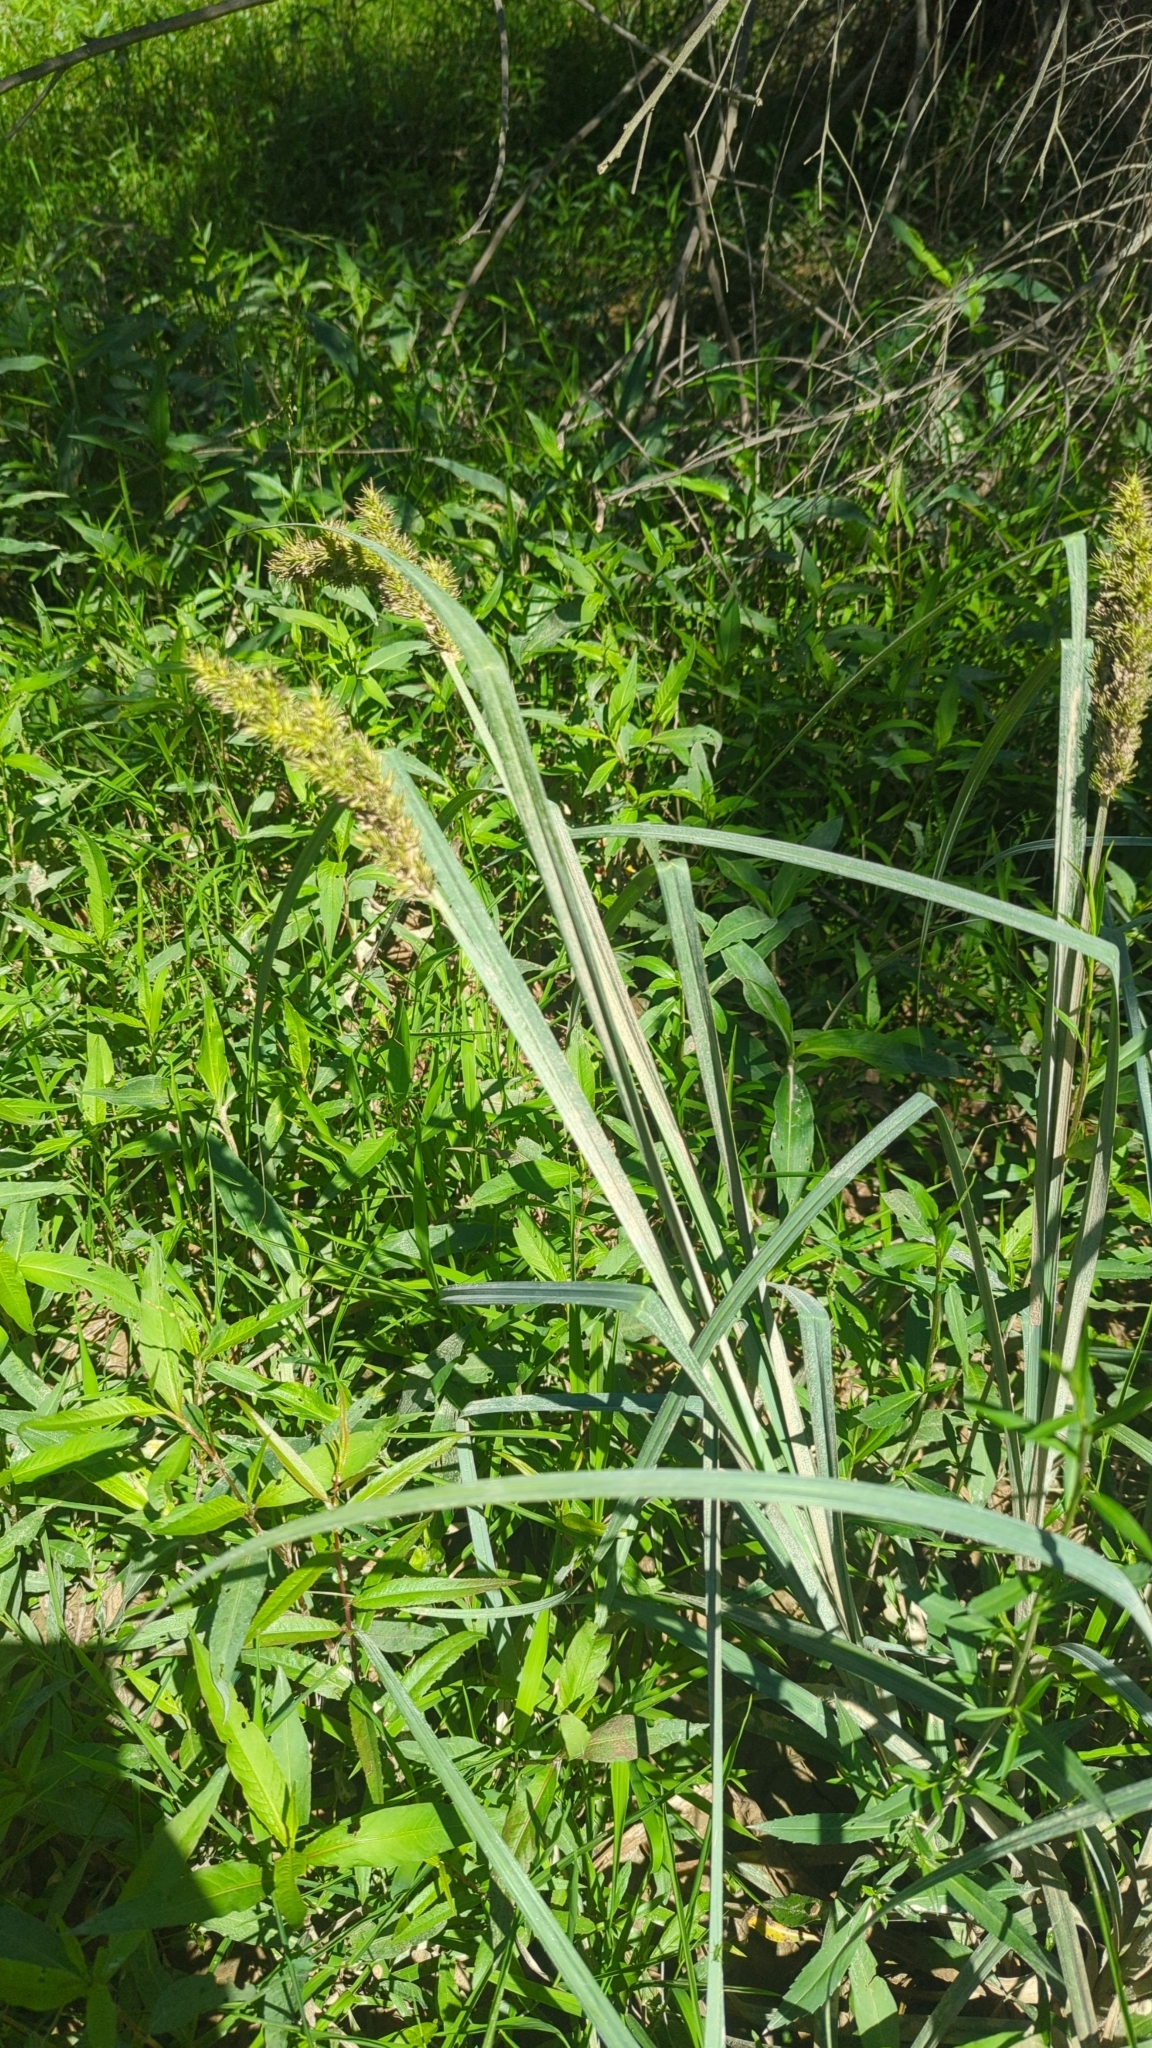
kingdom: Plantae
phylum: Tracheophyta
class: Liliopsida
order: Poales
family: Cyperaceae
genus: Carex
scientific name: Carex crus-corvi
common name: Crow-spur sedge
